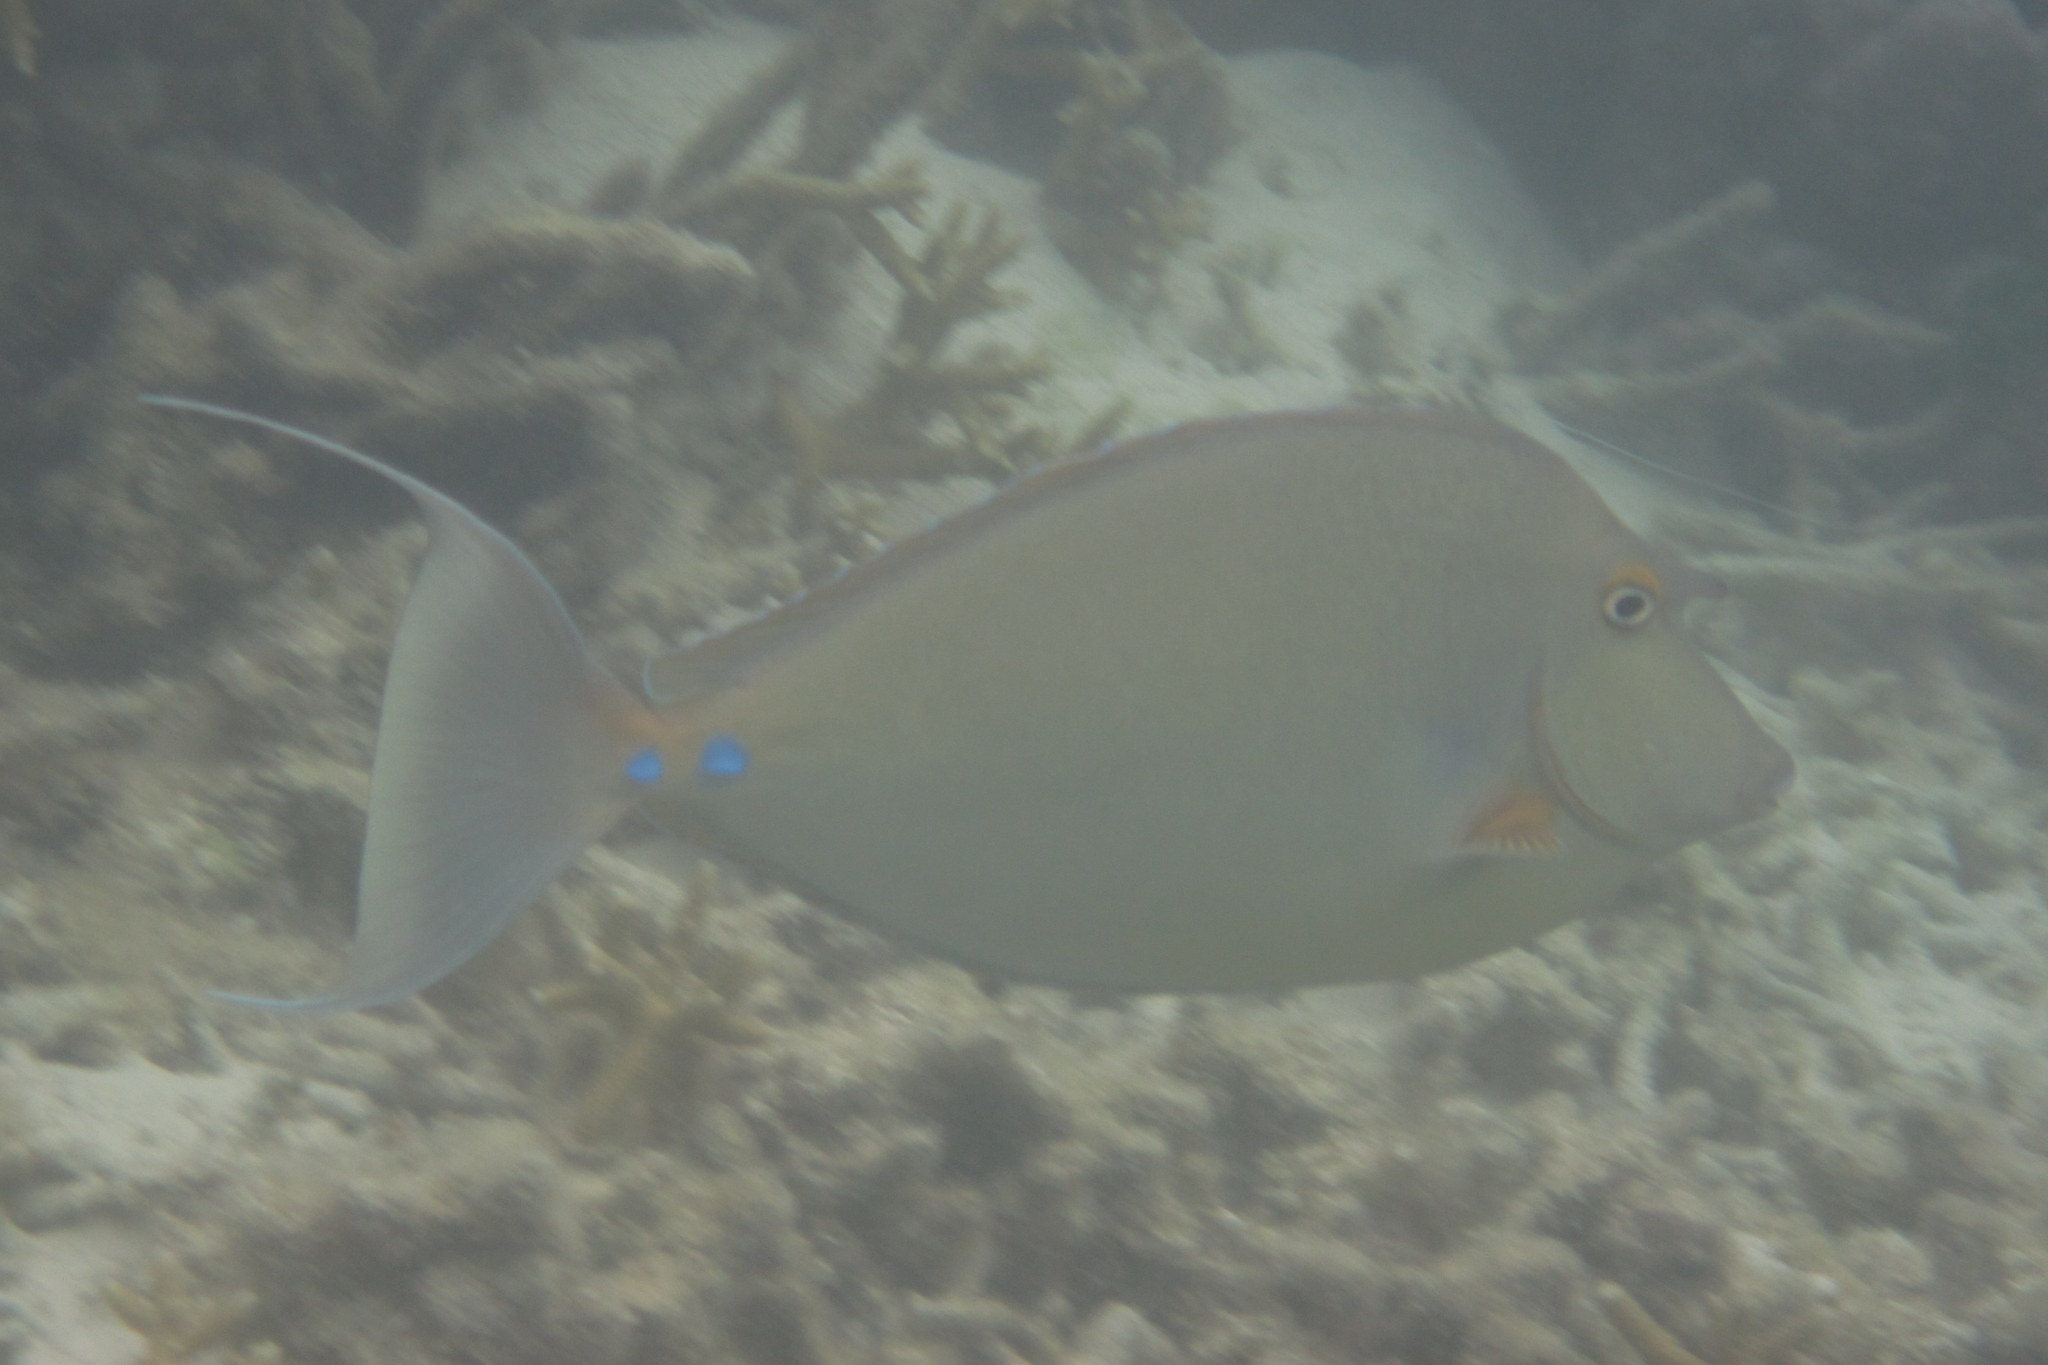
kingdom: Animalia
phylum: Chordata
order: Perciformes
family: Acanthuridae
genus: Naso
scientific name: Naso unicornis
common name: Bluespine unicornfish
